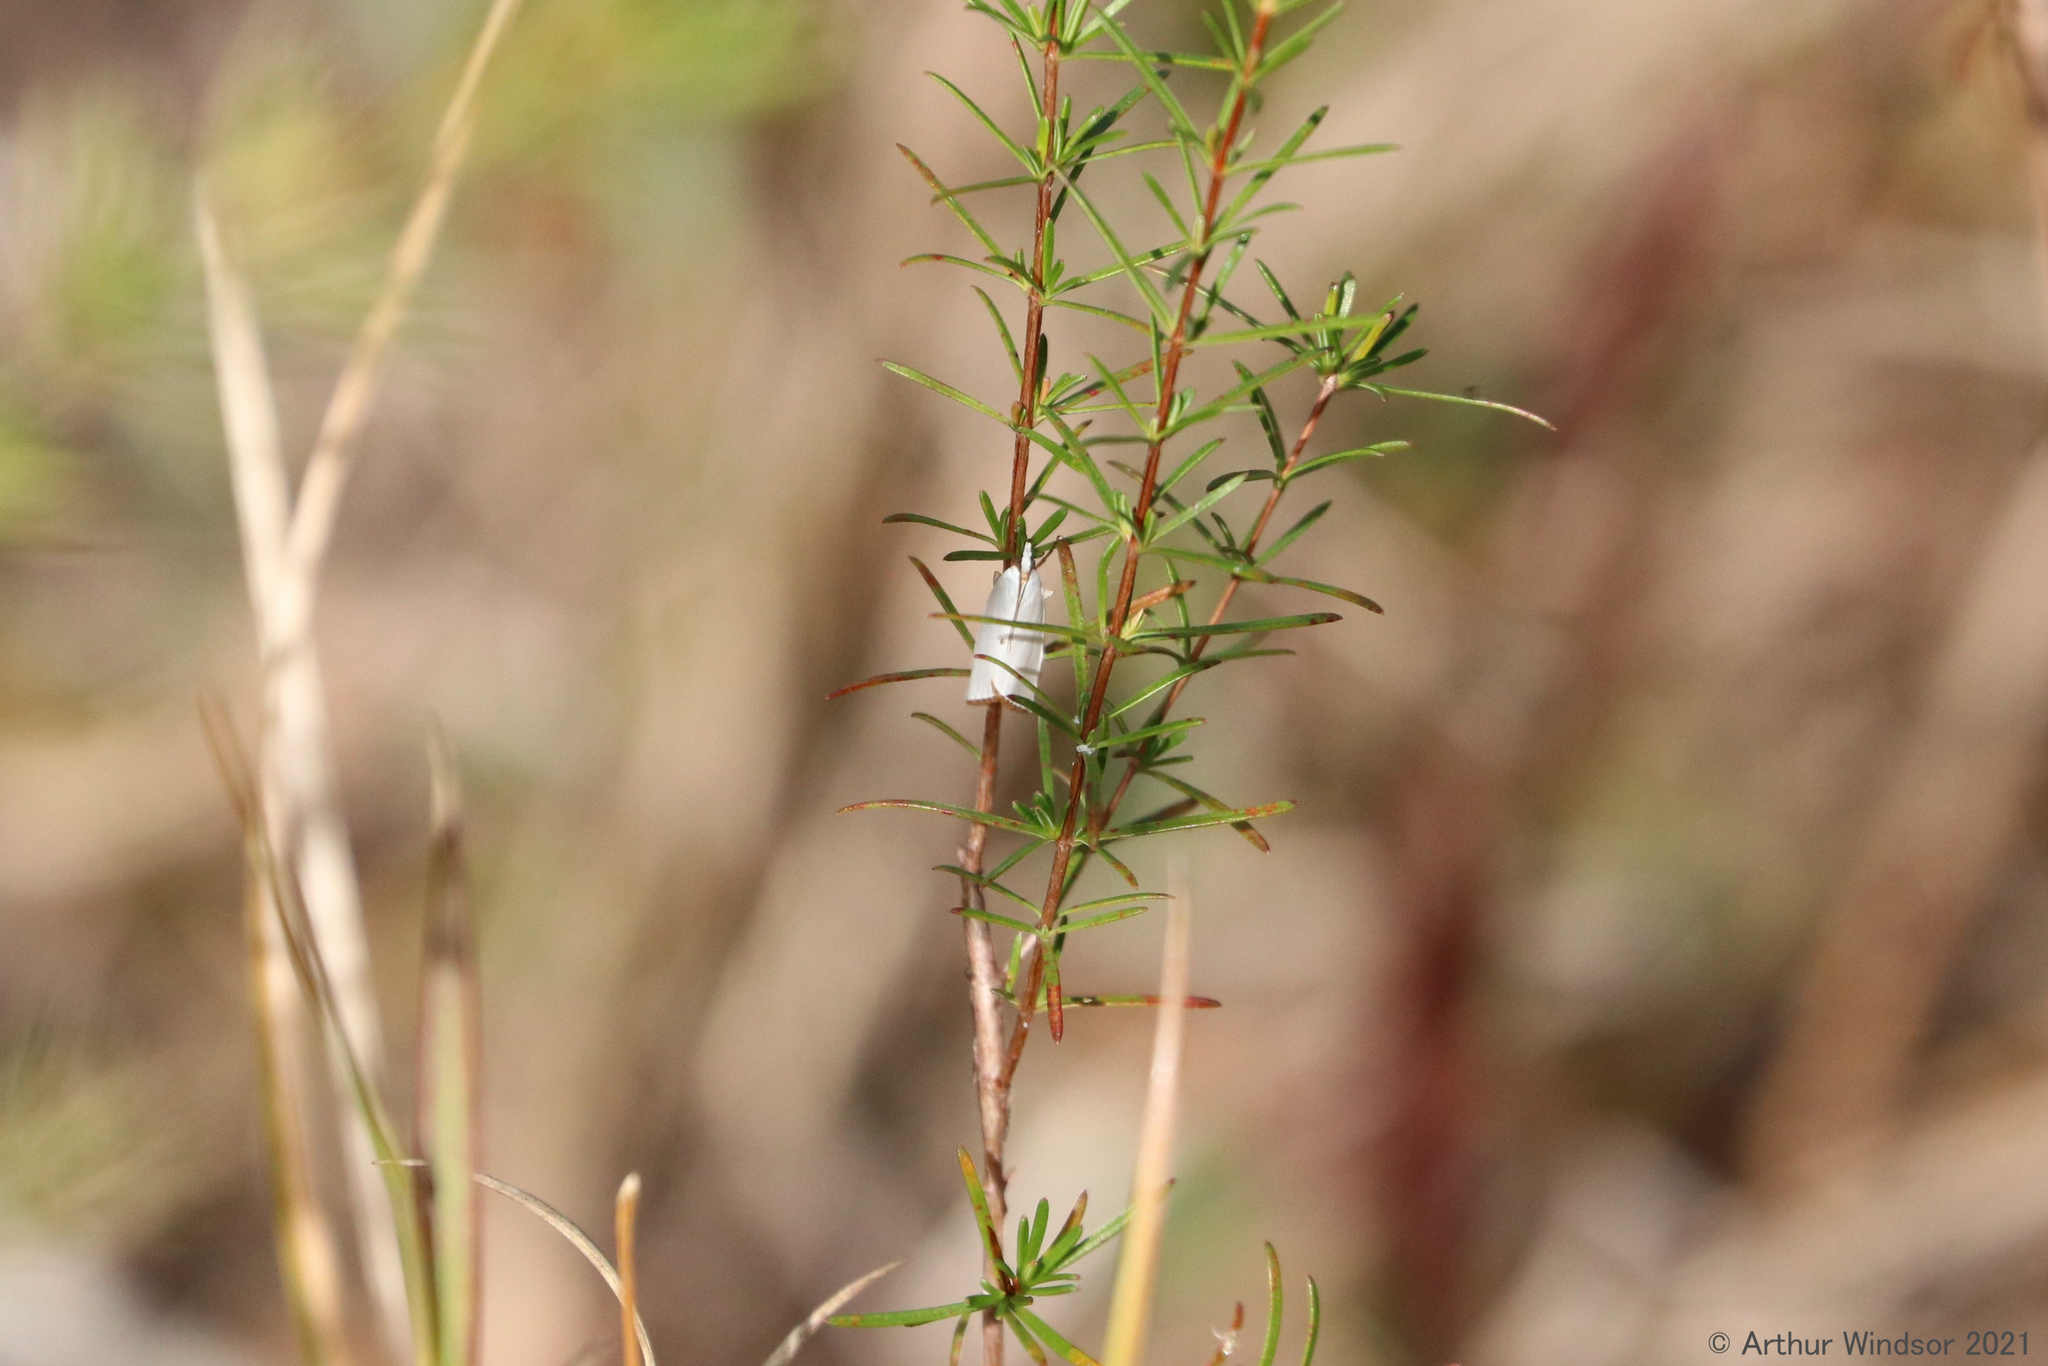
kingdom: Animalia
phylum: Arthropoda
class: Insecta
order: Lepidoptera
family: Crambidae
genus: Argyria
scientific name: Argyria nivalis
